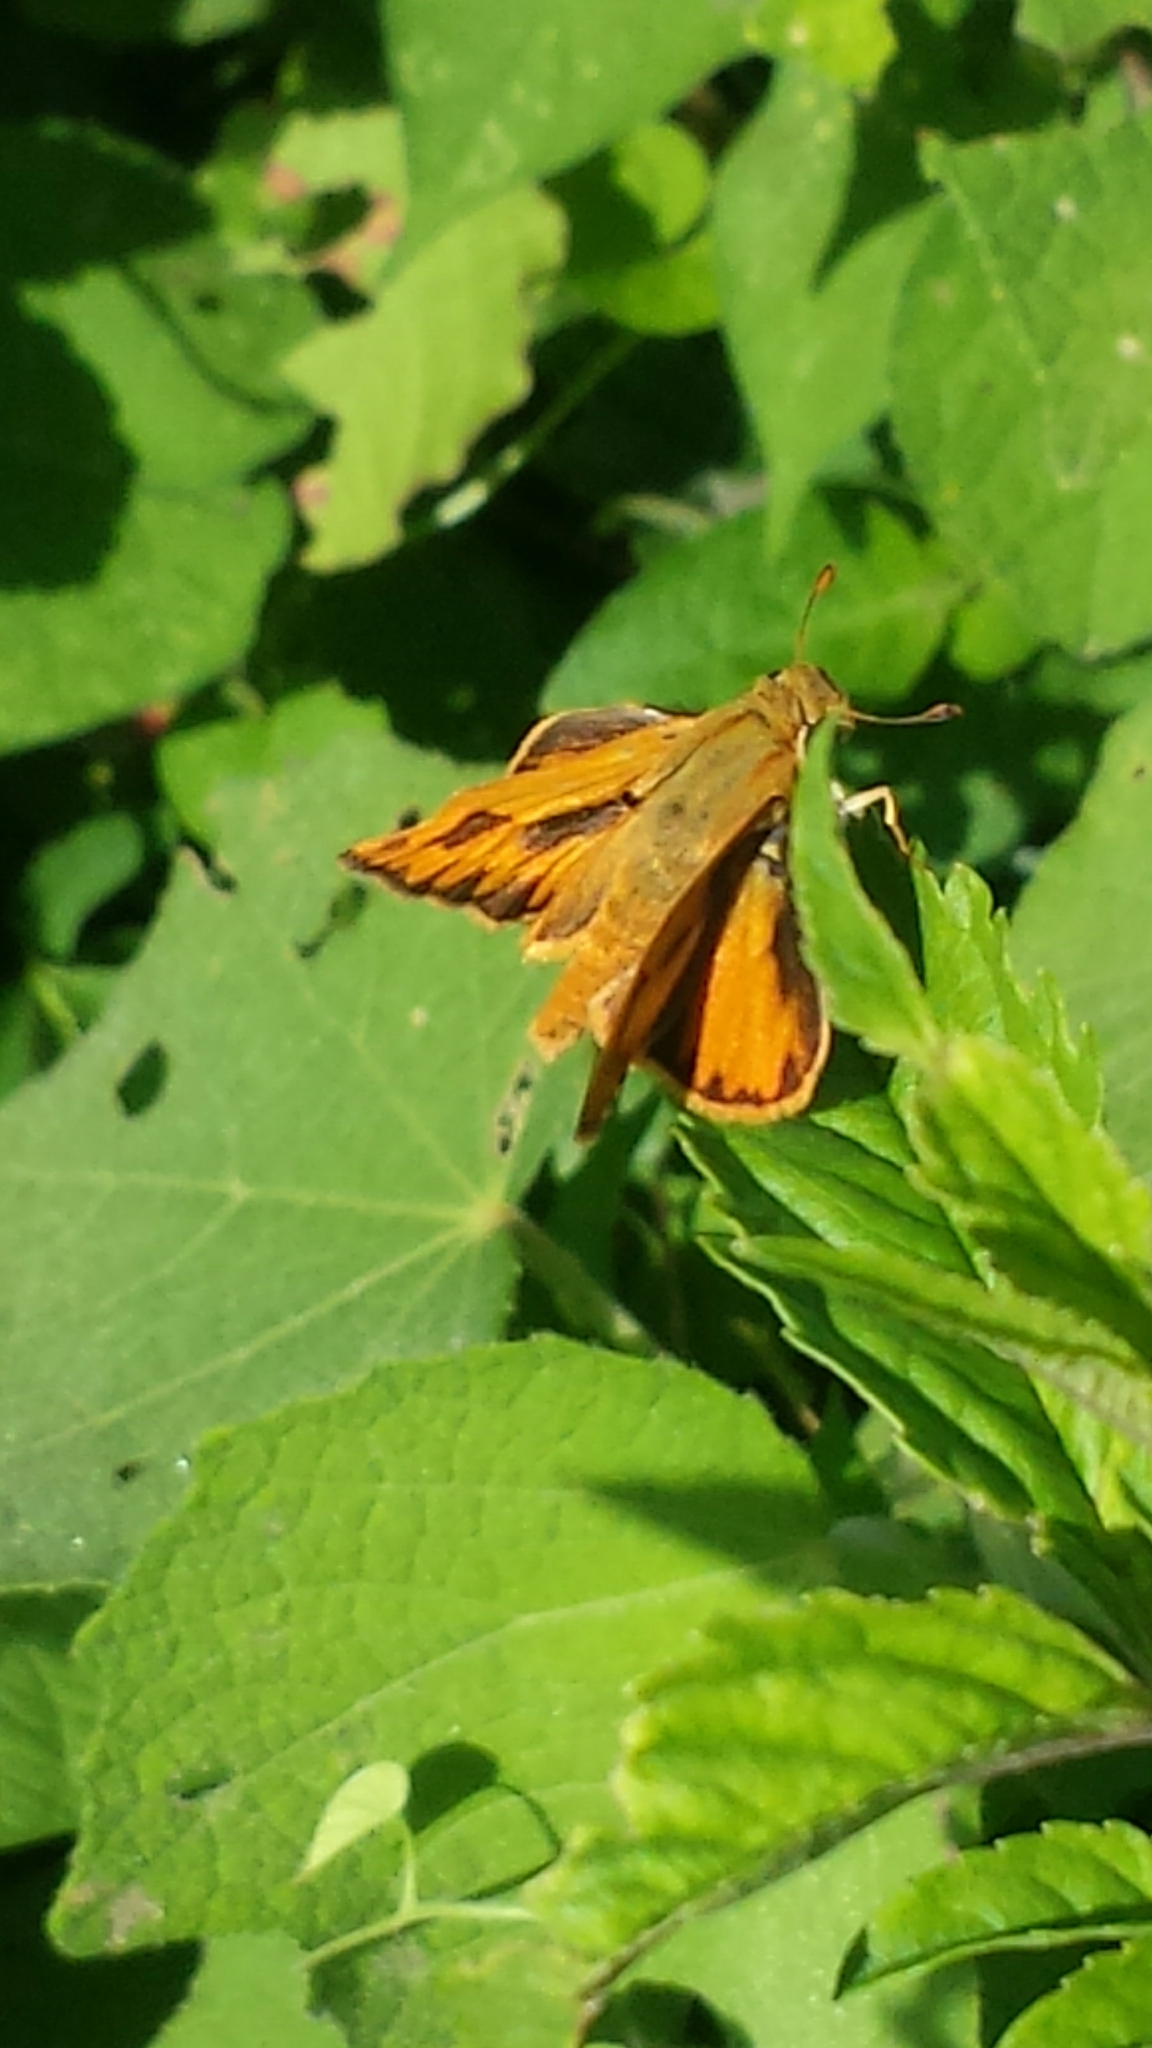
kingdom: Animalia
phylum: Arthropoda
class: Insecta
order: Lepidoptera
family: Hesperiidae
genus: Hylephila
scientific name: Hylephila phyleus
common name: Fiery skipper
